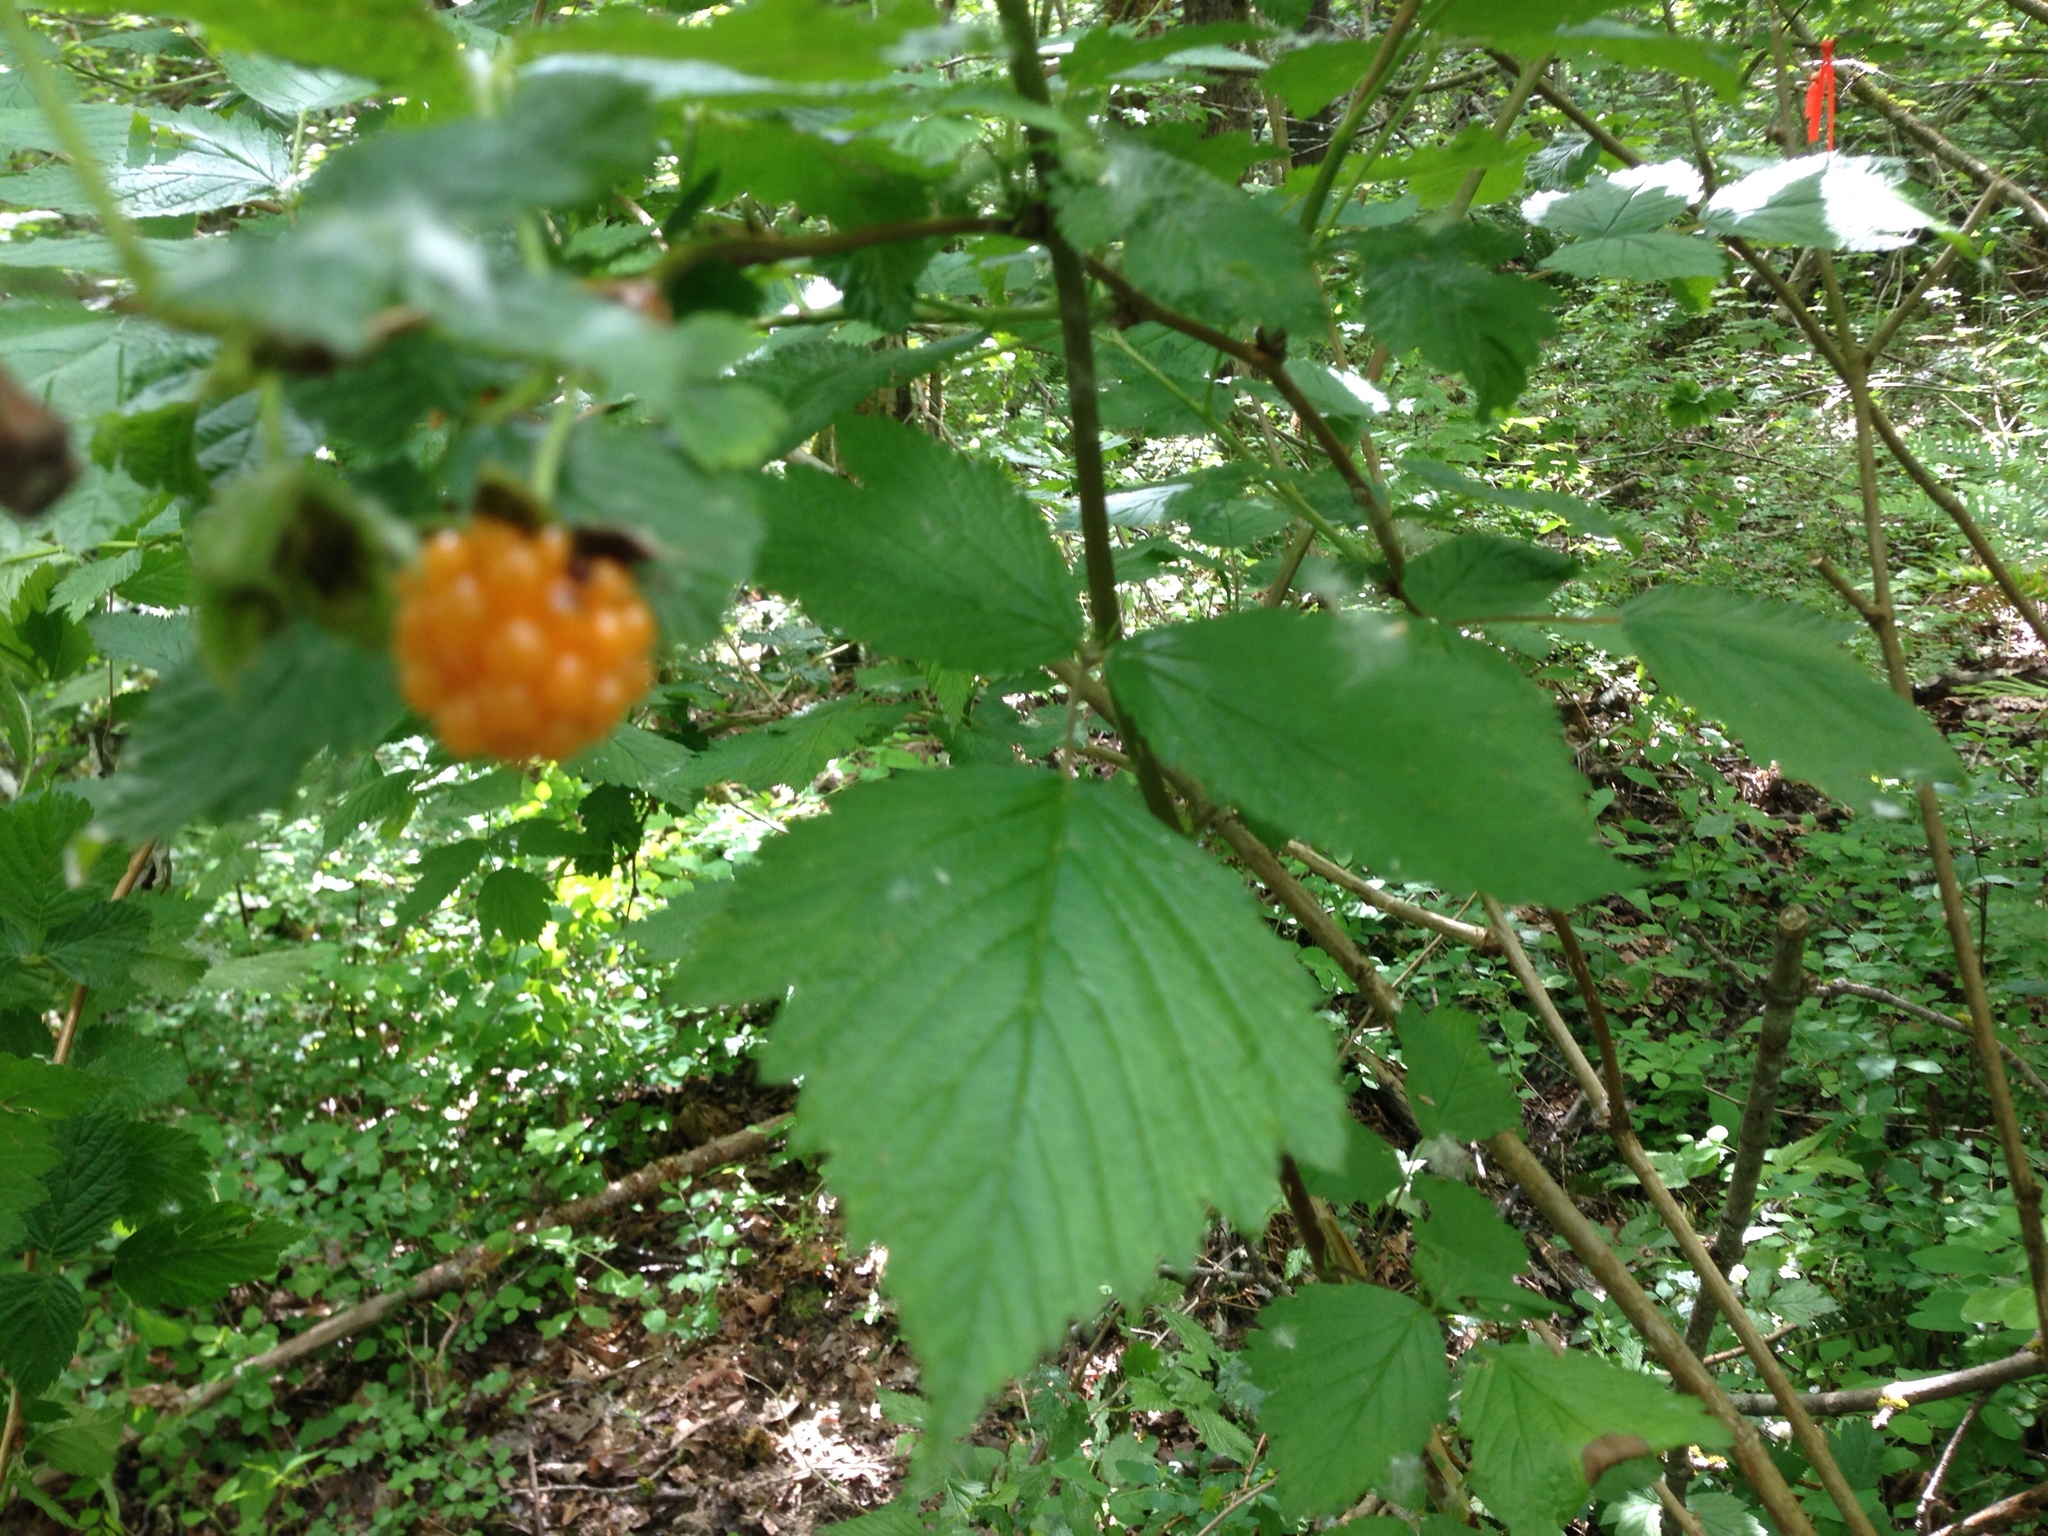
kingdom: Plantae
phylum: Tracheophyta
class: Magnoliopsida
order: Rosales
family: Rosaceae
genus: Rubus
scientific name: Rubus spectabilis
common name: Salmonberry
